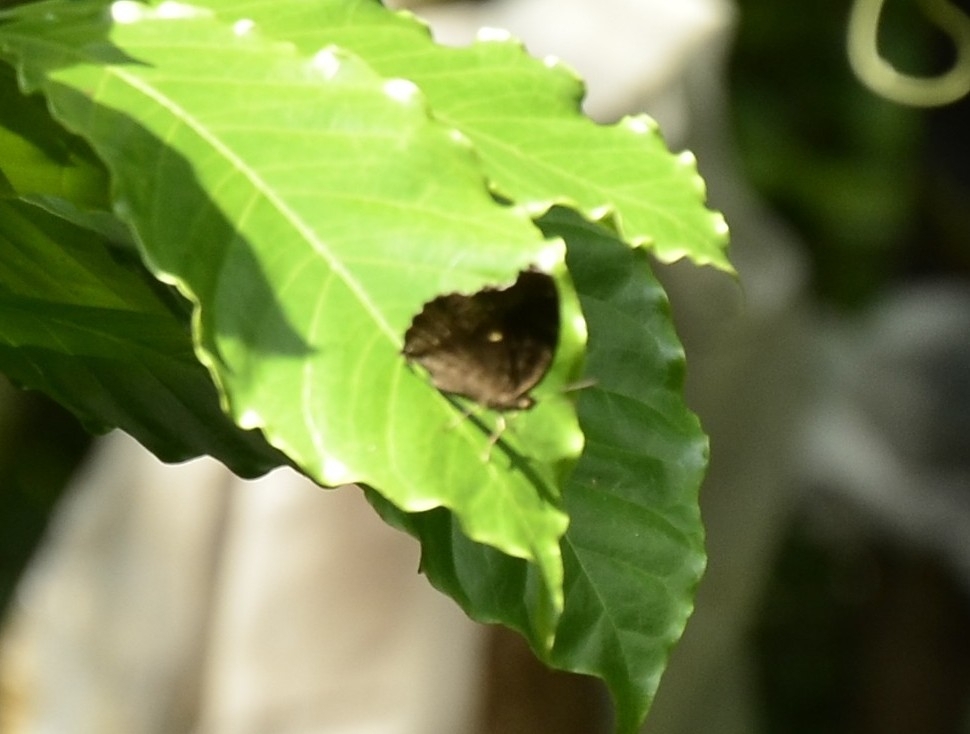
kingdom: Animalia
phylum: Arthropoda
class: Insecta
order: Lepidoptera
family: Nymphalidae
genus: Junonia
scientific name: Junonia iphita
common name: Chocolate pansy
